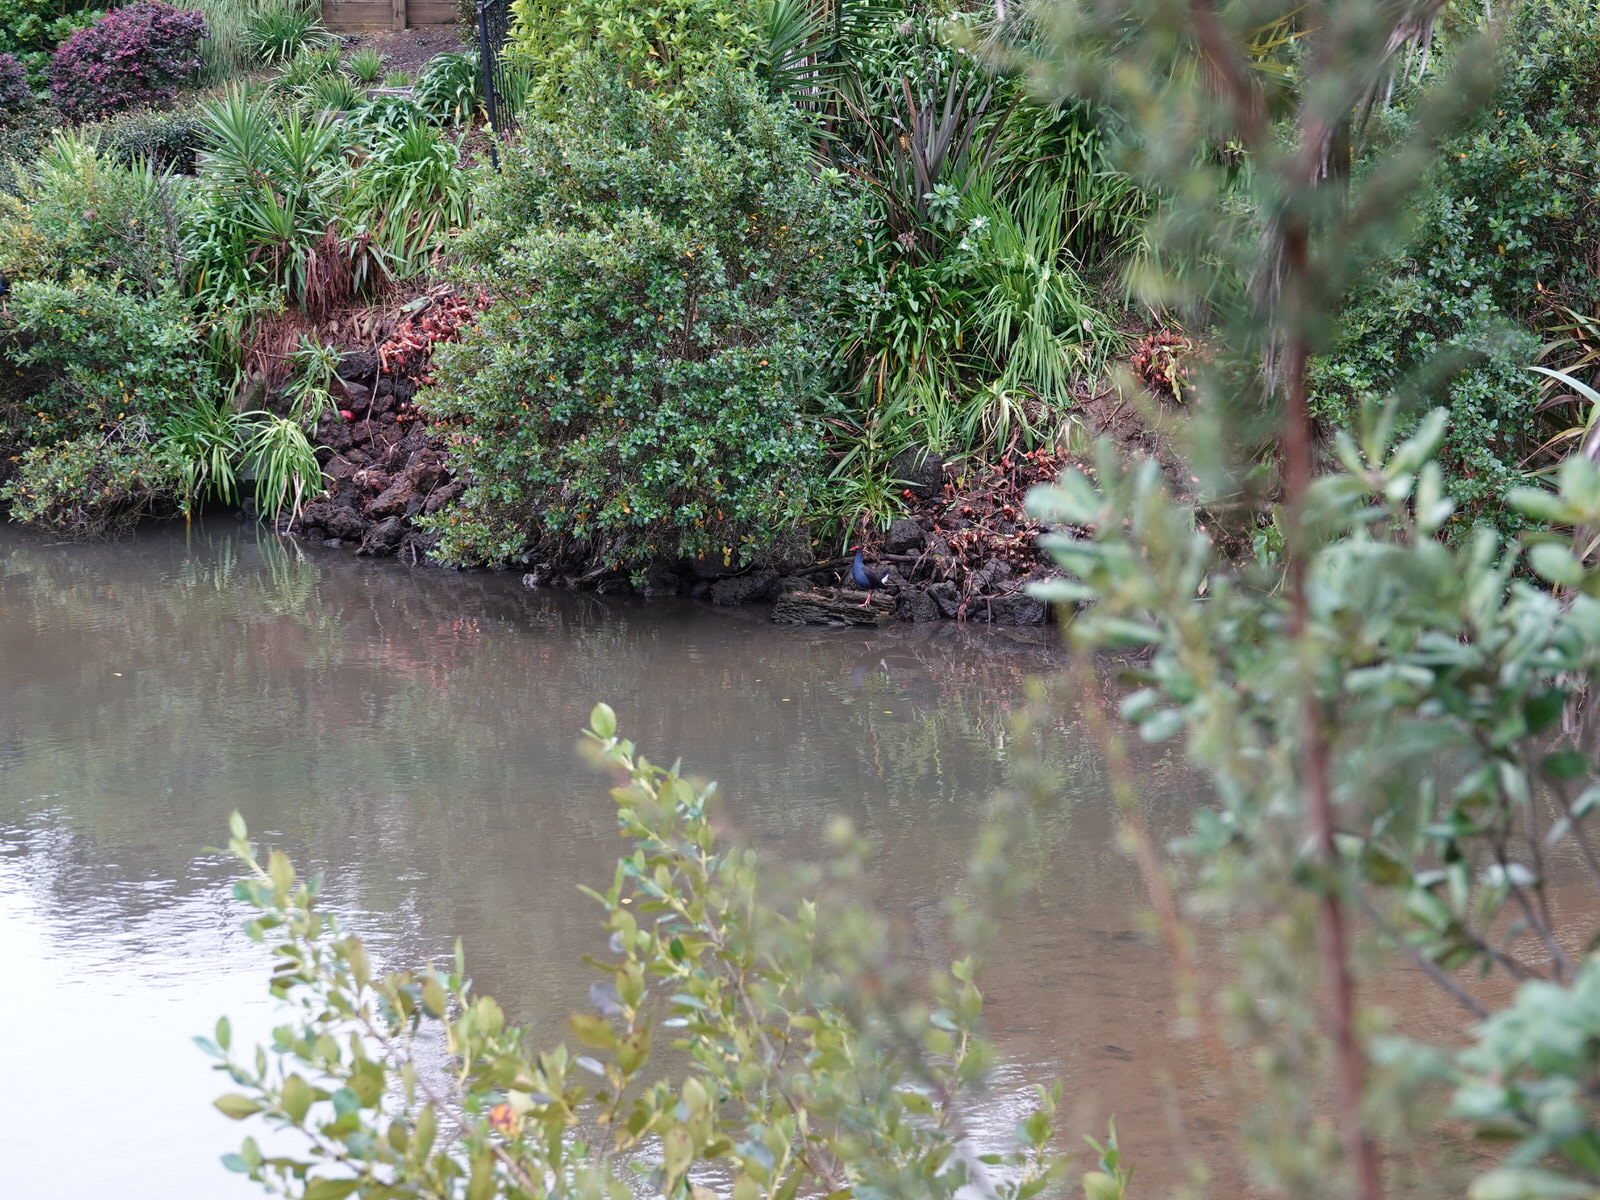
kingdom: Animalia
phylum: Chordata
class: Aves
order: Gruiformes
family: Rallidae
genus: Porphyrio
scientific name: Porphyrio melanotus
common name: Australasian swamphen
